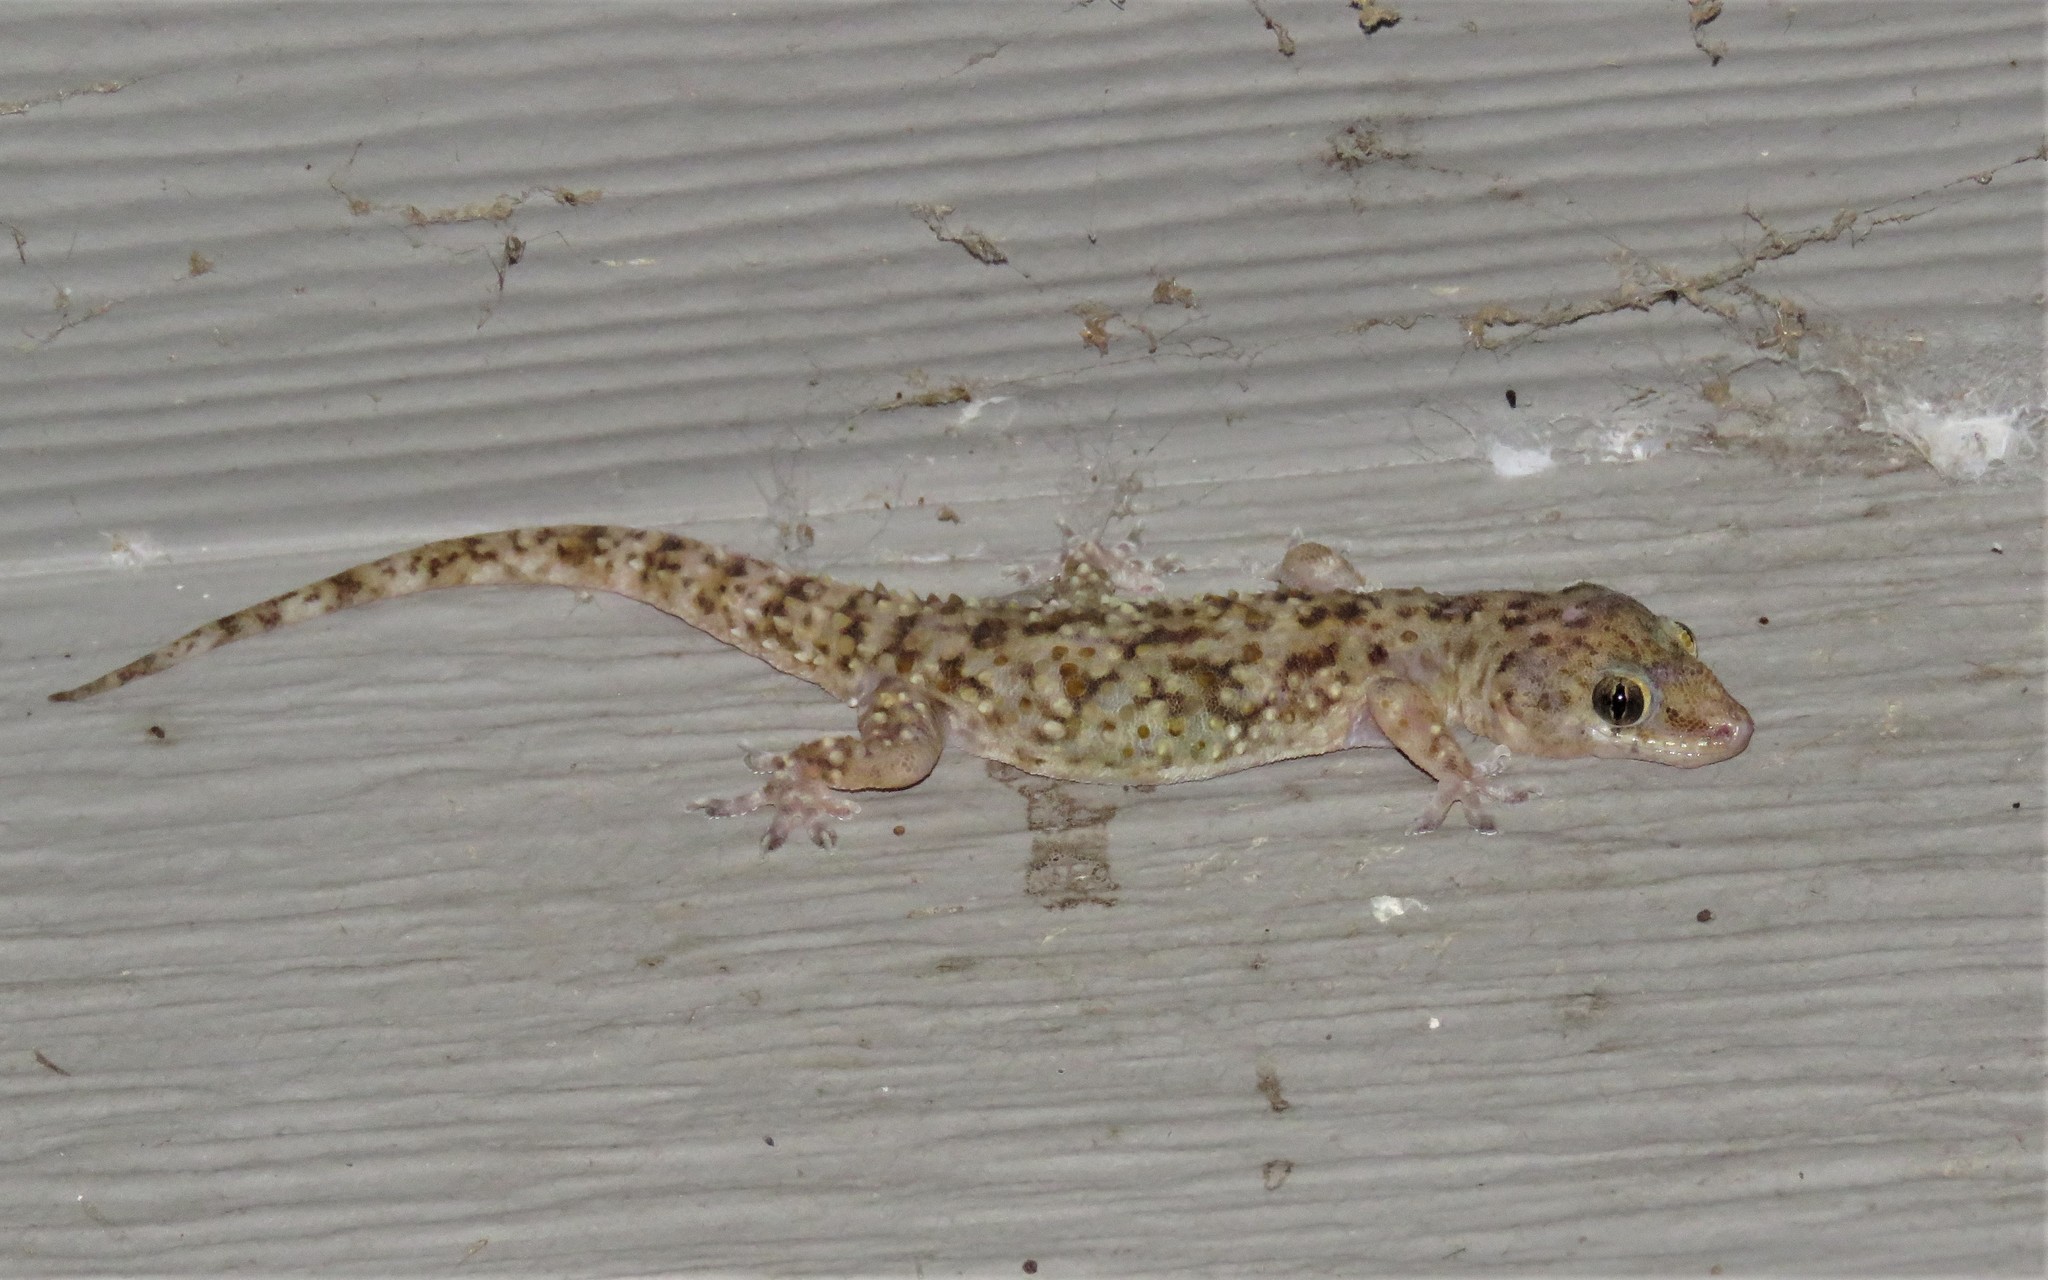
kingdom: Animalia
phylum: Chordata
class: Squamata
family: Gekkonidae
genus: Hemidactylus
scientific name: Hemidactylus turcicus
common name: Turkish gecko
